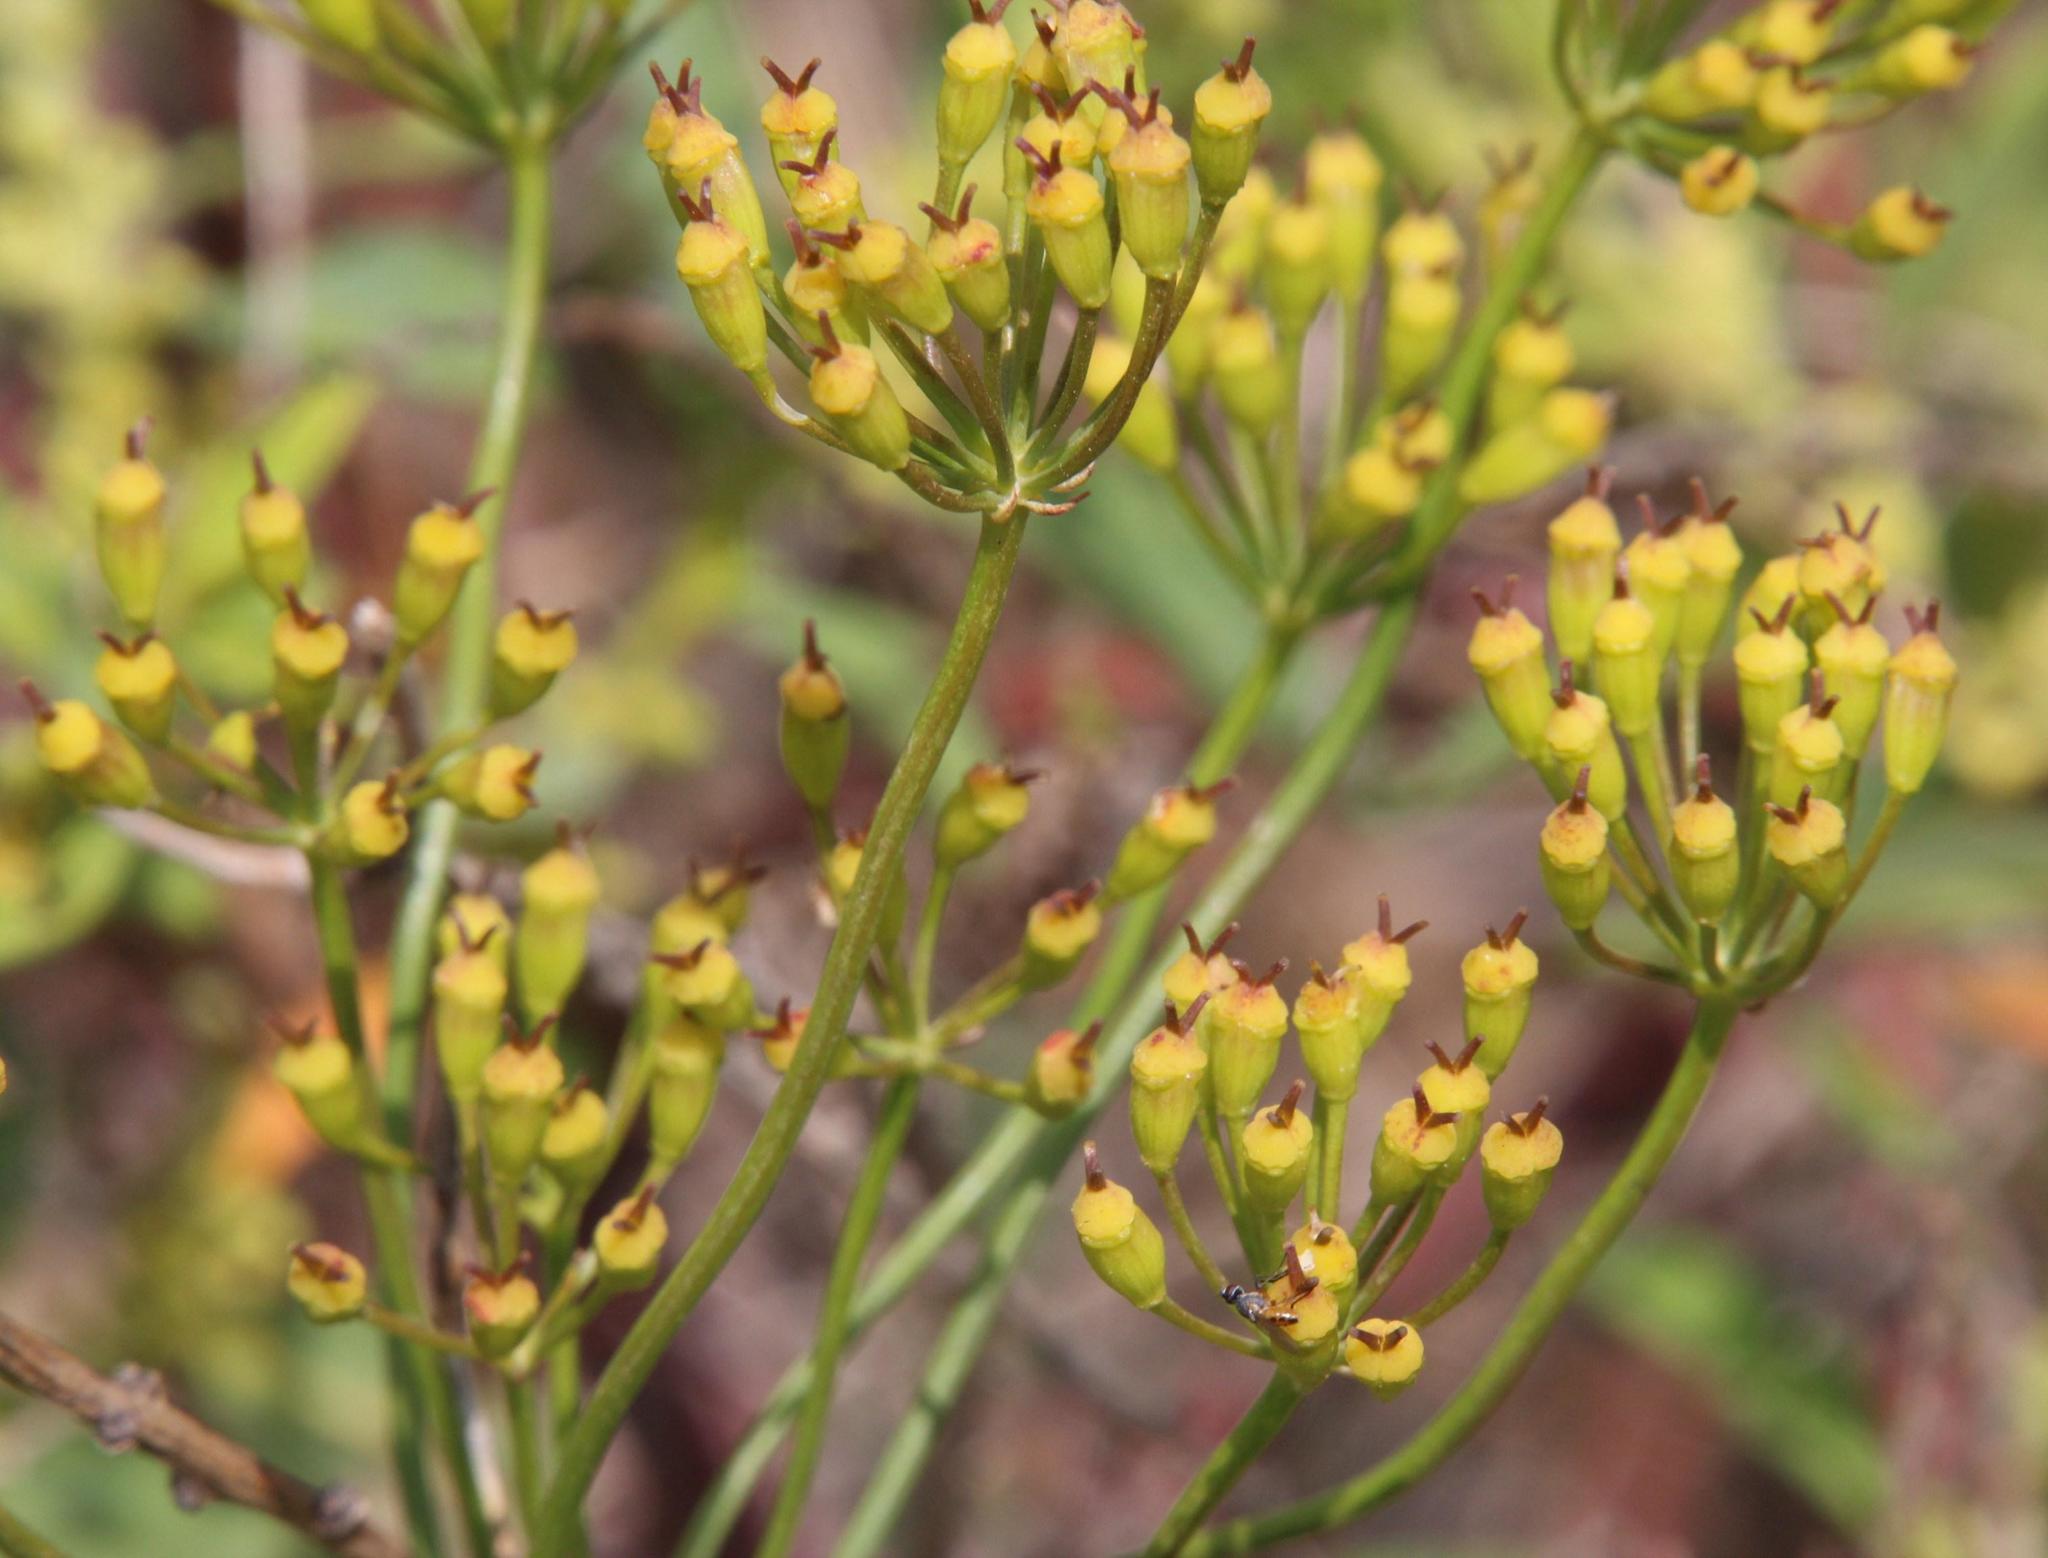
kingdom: Plantae
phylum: Tracheophyta
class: Magnoliopsida
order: Apiales
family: Apiaceae
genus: Afrosciadium
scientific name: Afrosciadium platycarpum
